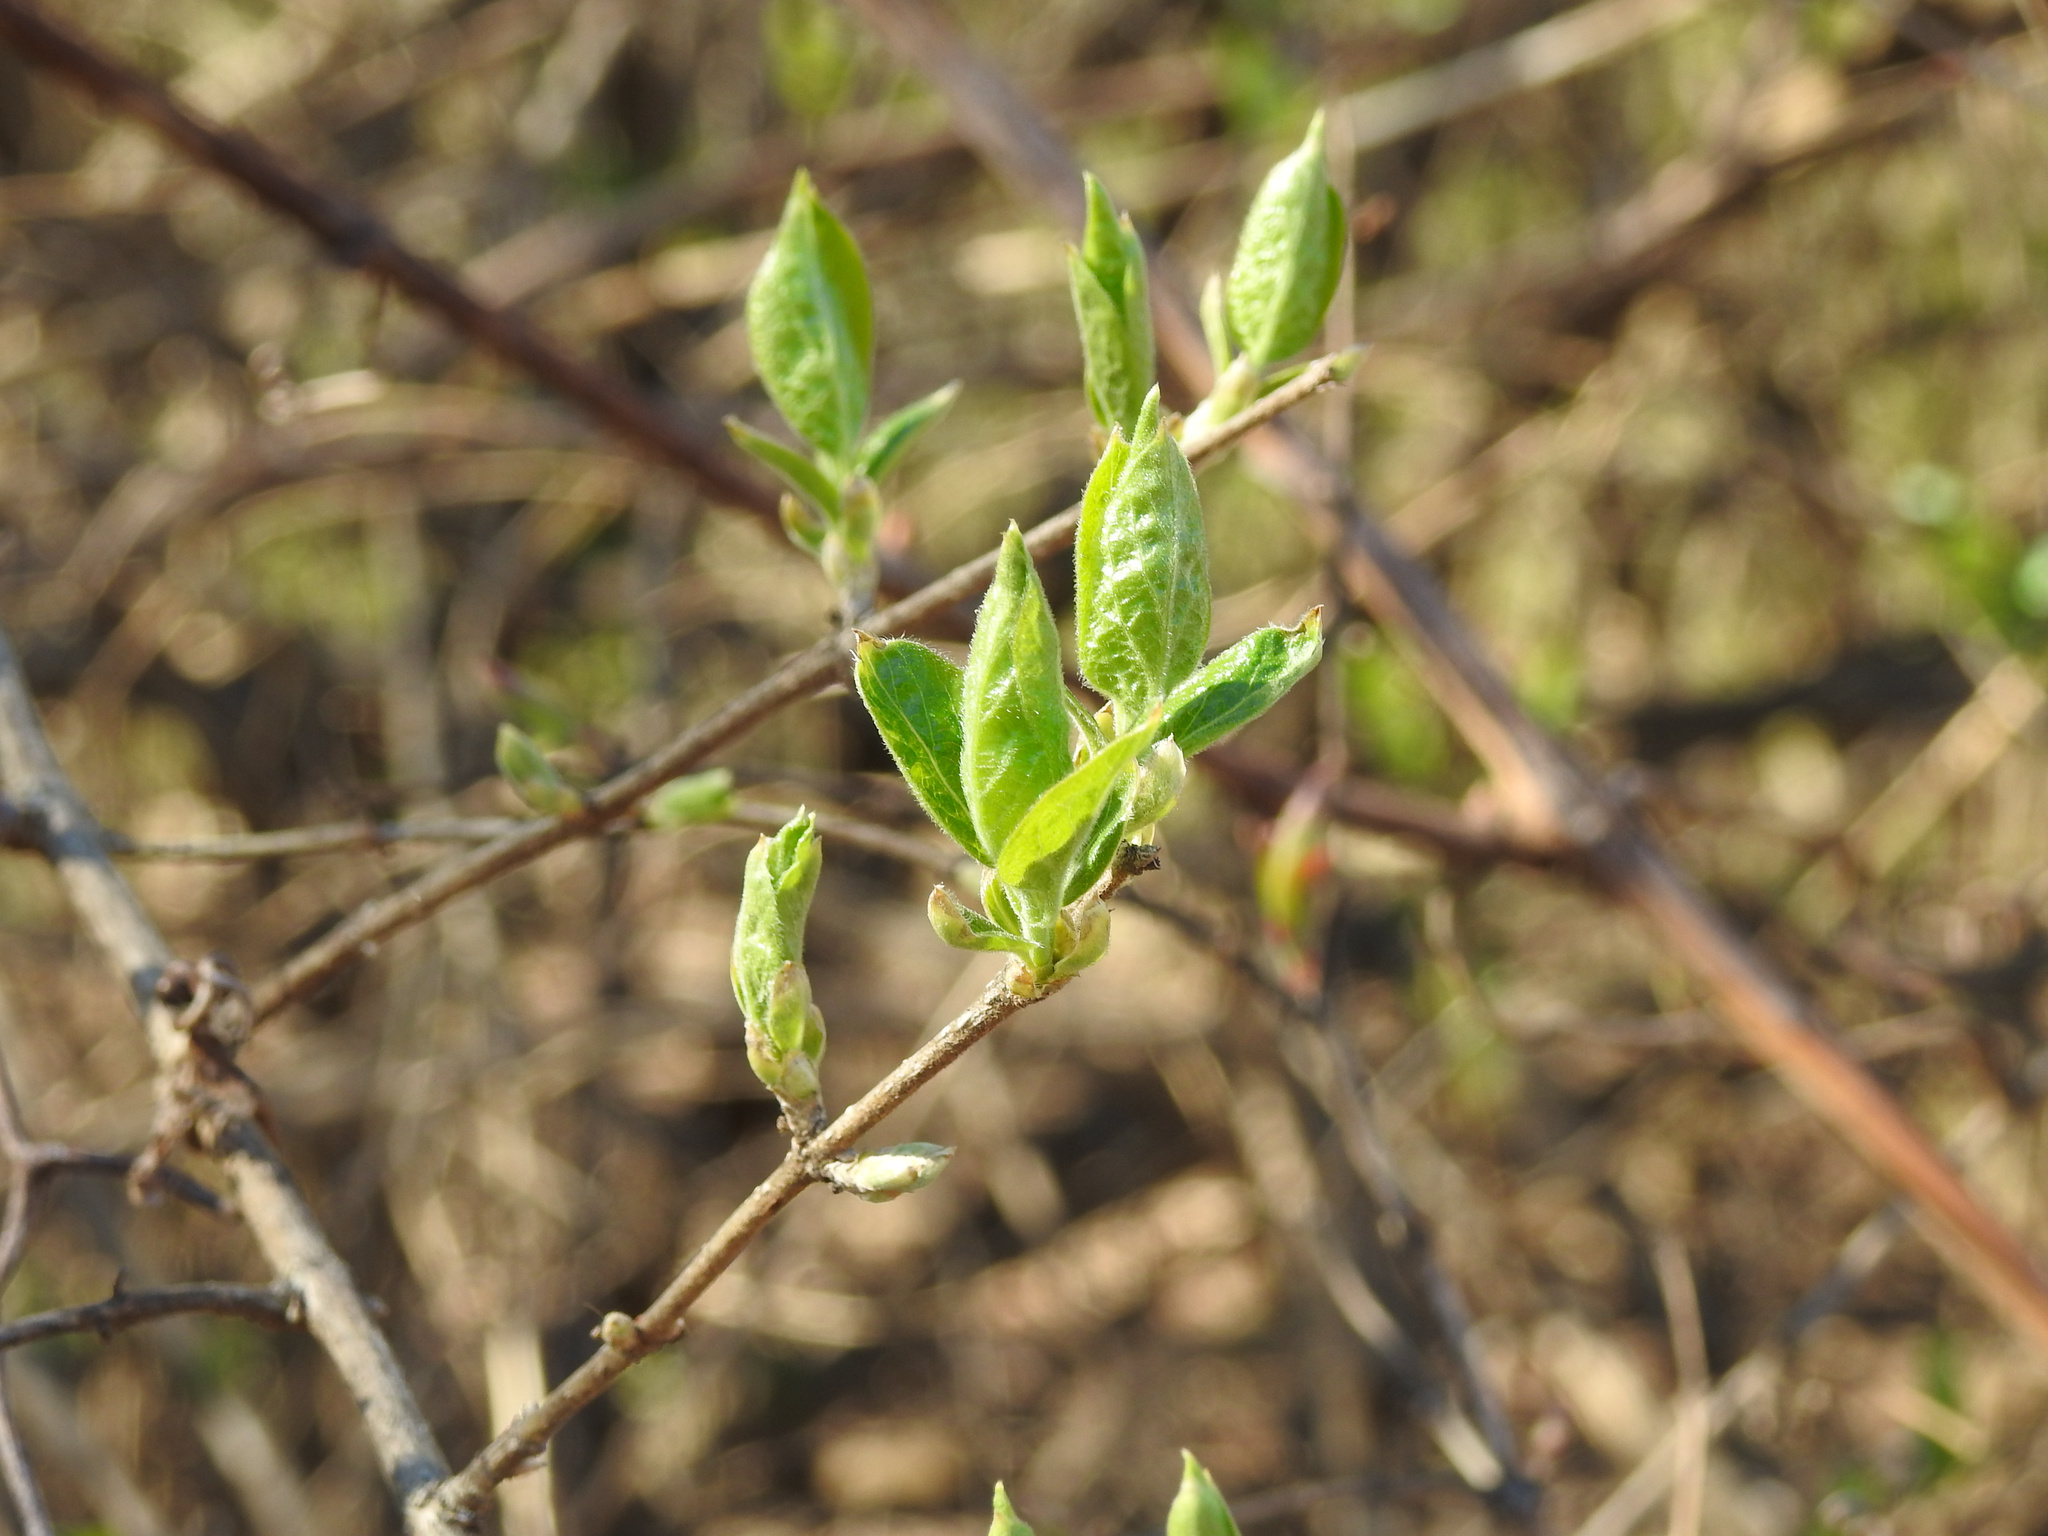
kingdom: Plantae
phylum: Tracheophyta
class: Magnoliopsida
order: Dipsacales
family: Caprifoliaceae
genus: Lonicera
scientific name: Lonicera maackii
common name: Amur honeysuckle
